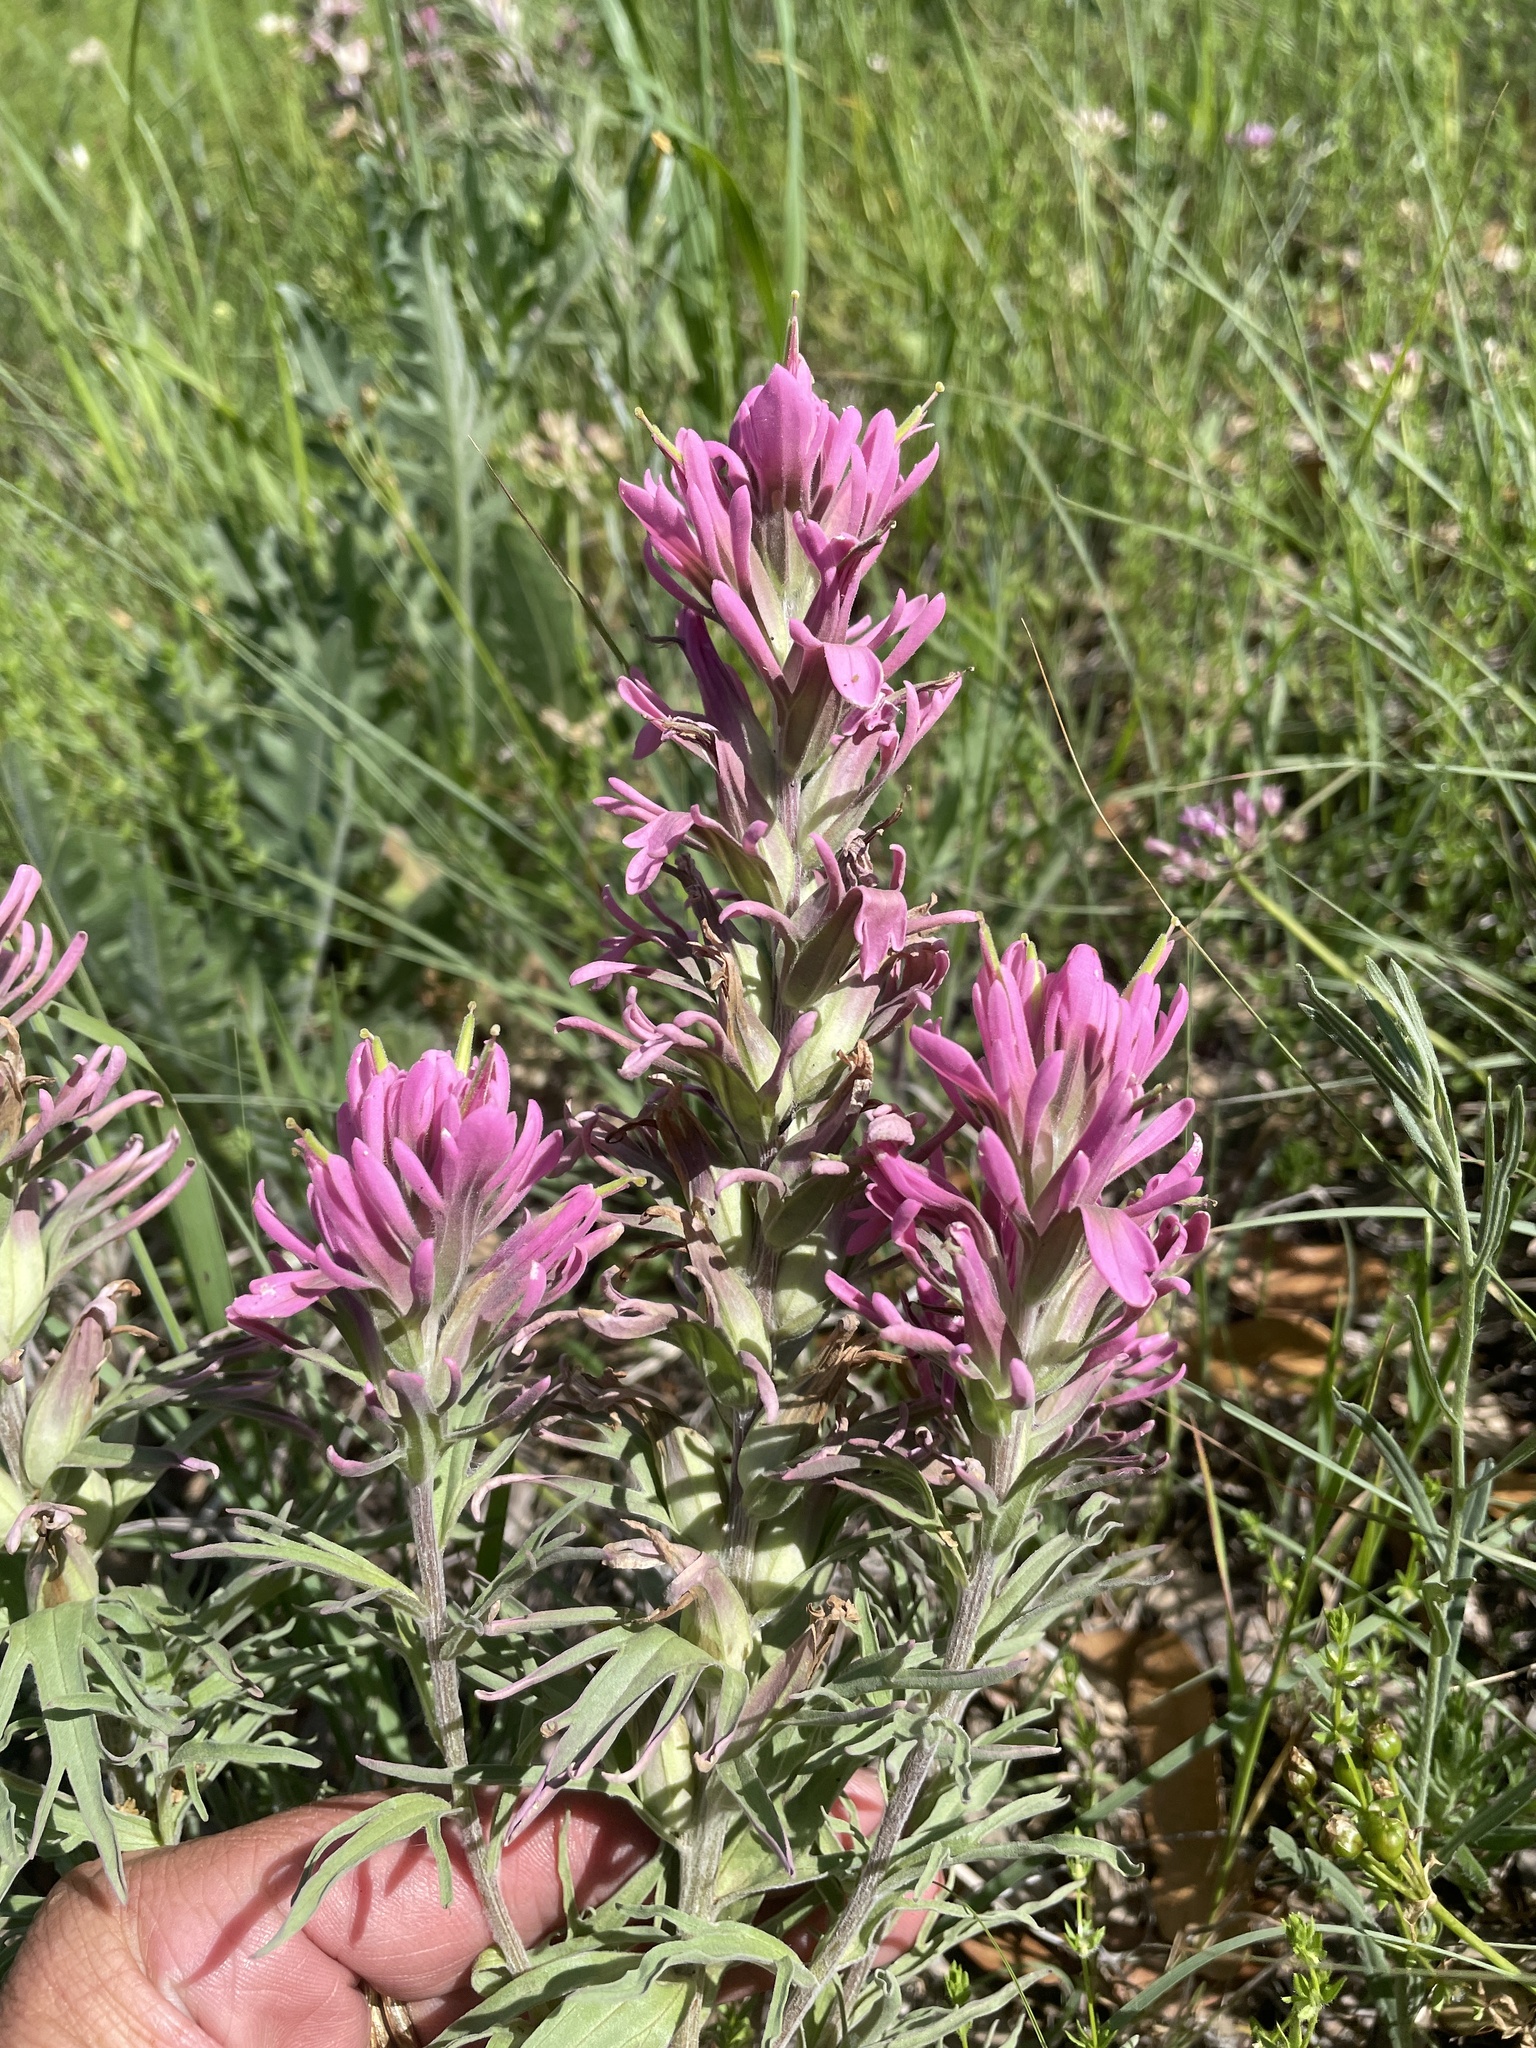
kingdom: Plantae
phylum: Tracheophyta
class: Magnoliopsida
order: Lamiales
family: Orobanchaceae
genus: Castilleja
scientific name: Castilleja purpurea
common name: Plains paintbrush
